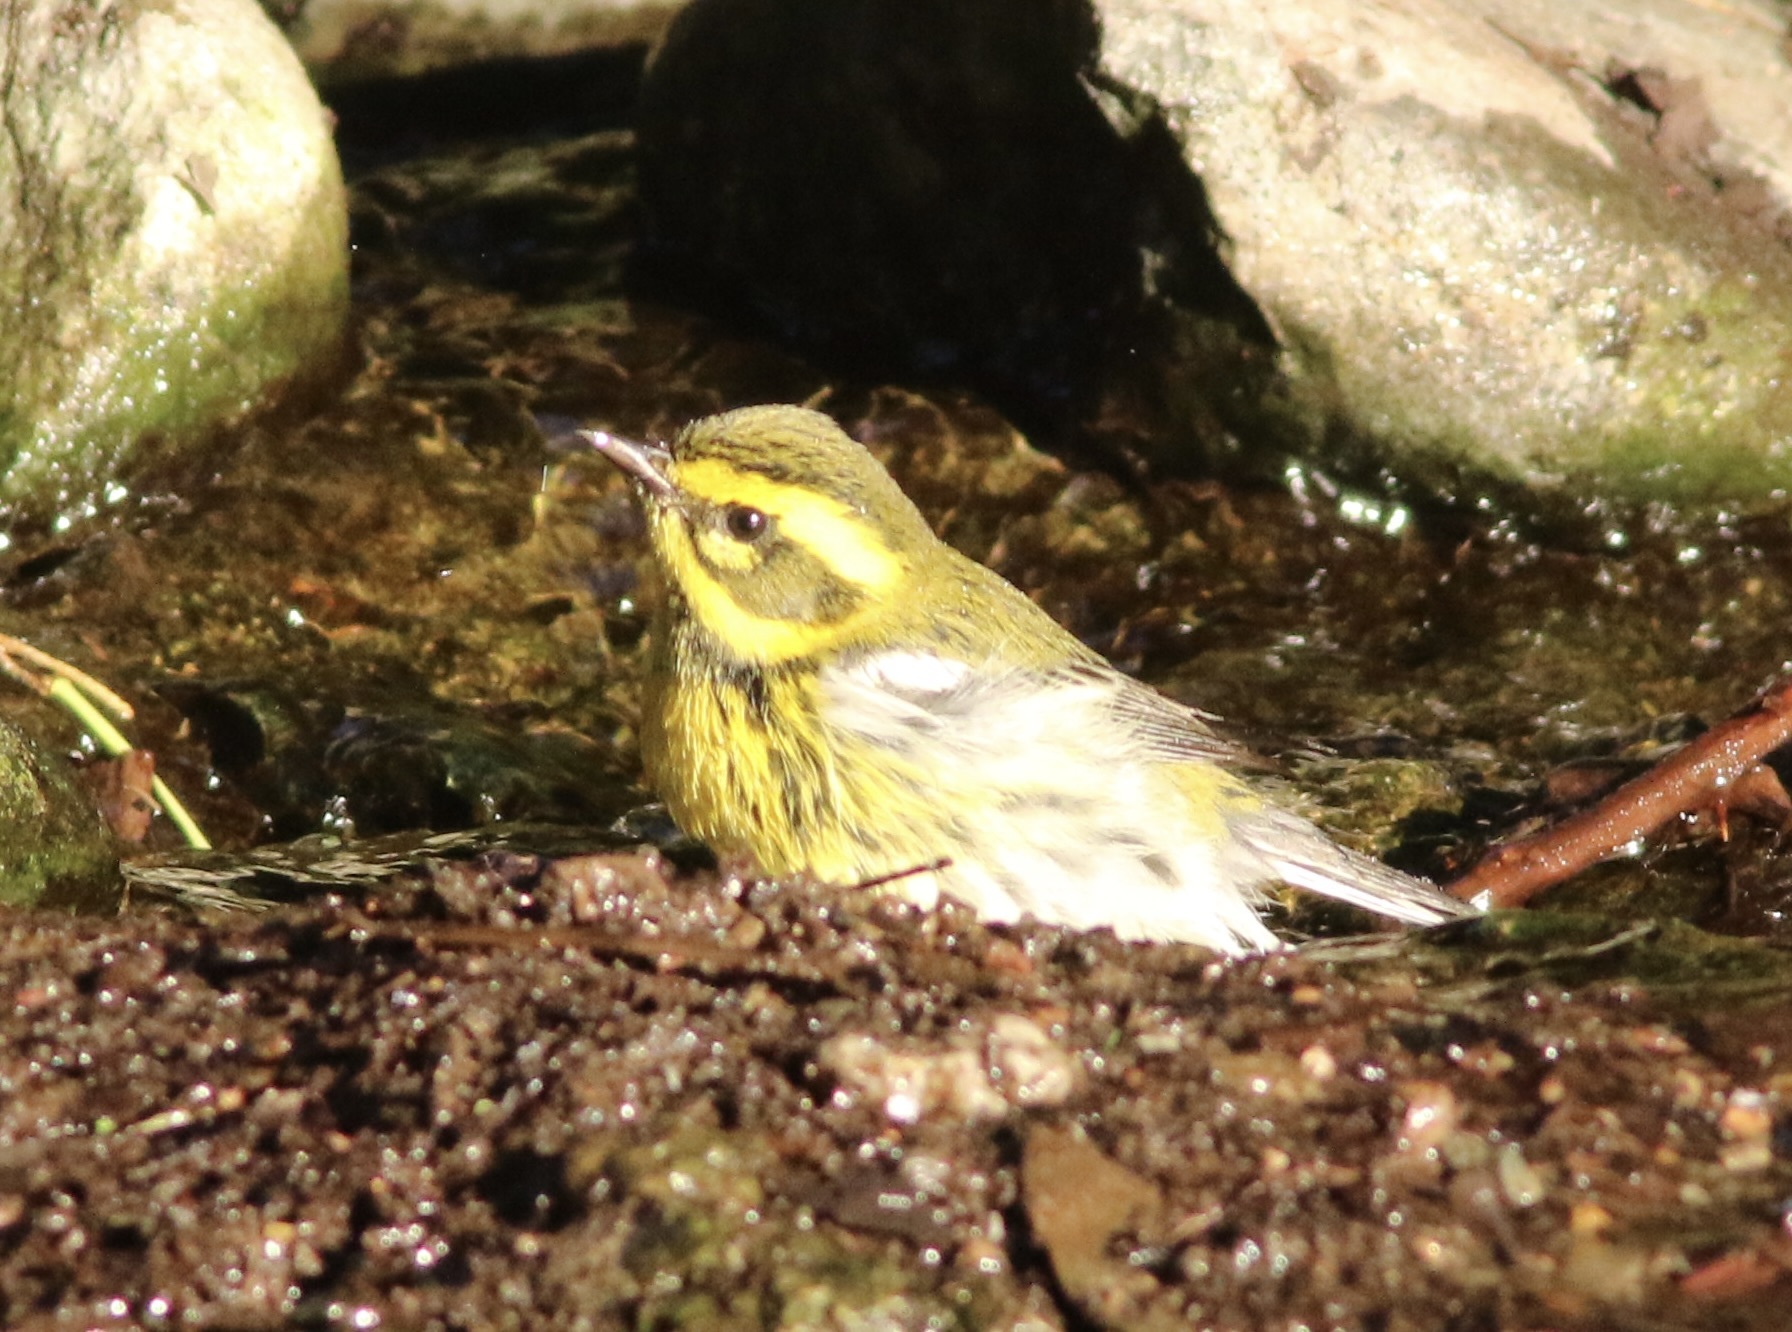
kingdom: Animalia
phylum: Chordata
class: Aves
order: Passeriformes
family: Parulidae
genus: Setophaga
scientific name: Setophaga townsendi
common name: Townsend's warbler
